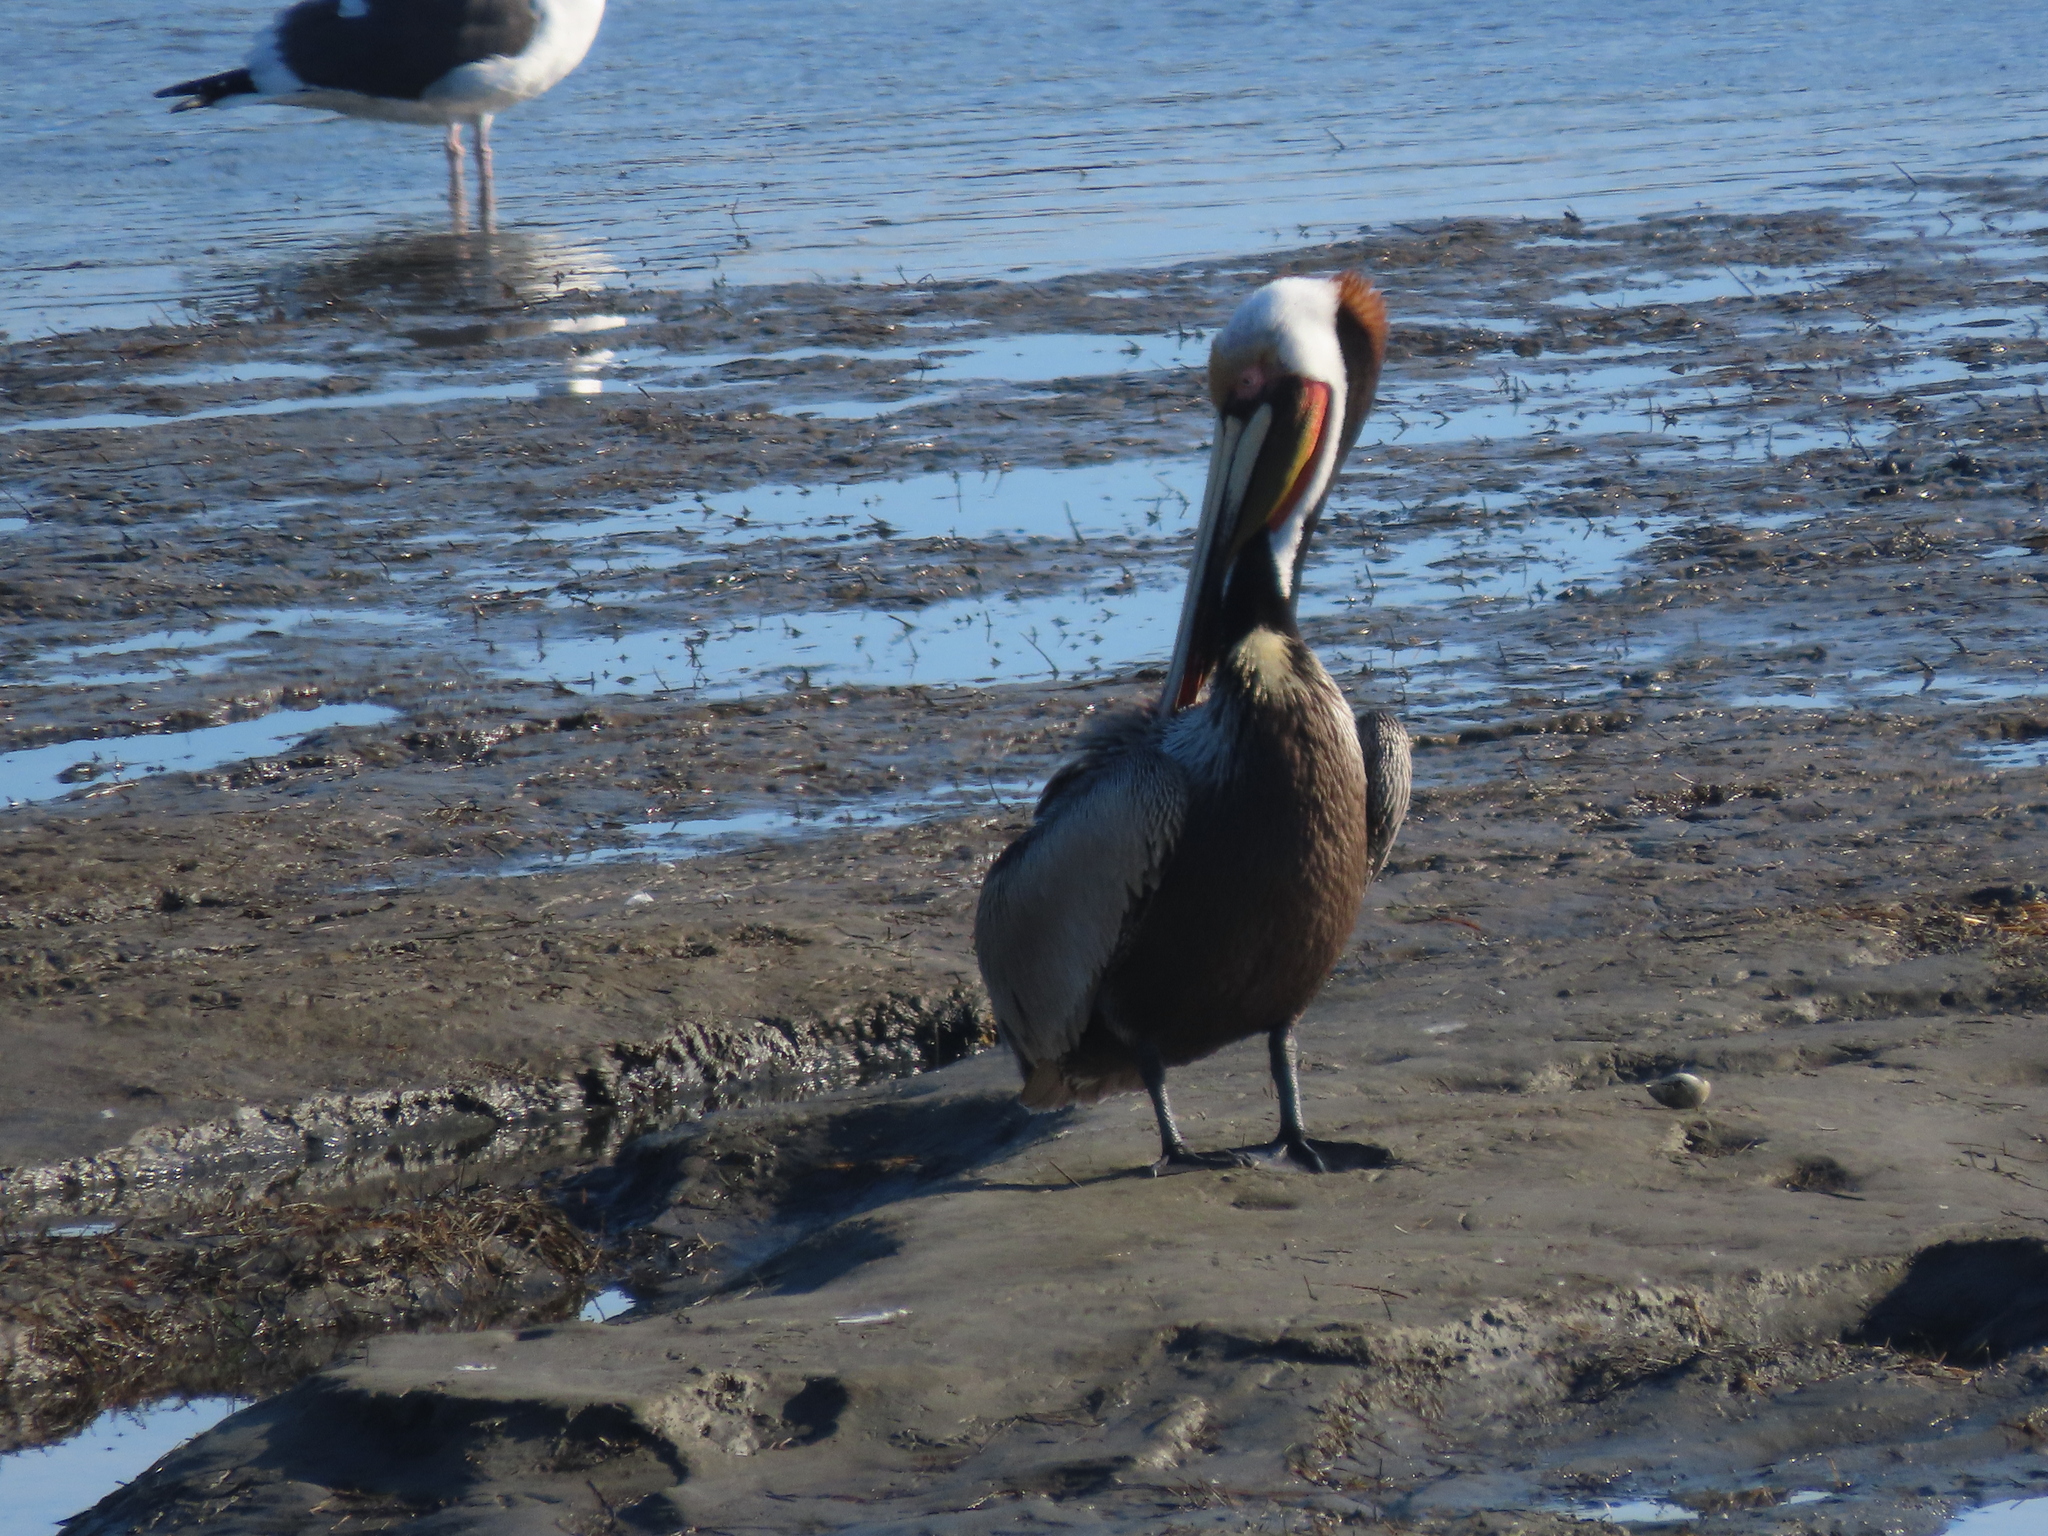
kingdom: Animalia
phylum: Chordata
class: Aves
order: Pelecaniformes
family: Pelecanidae
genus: Pelecanus
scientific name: Pelecanus occidentalis
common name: Brown pelican
